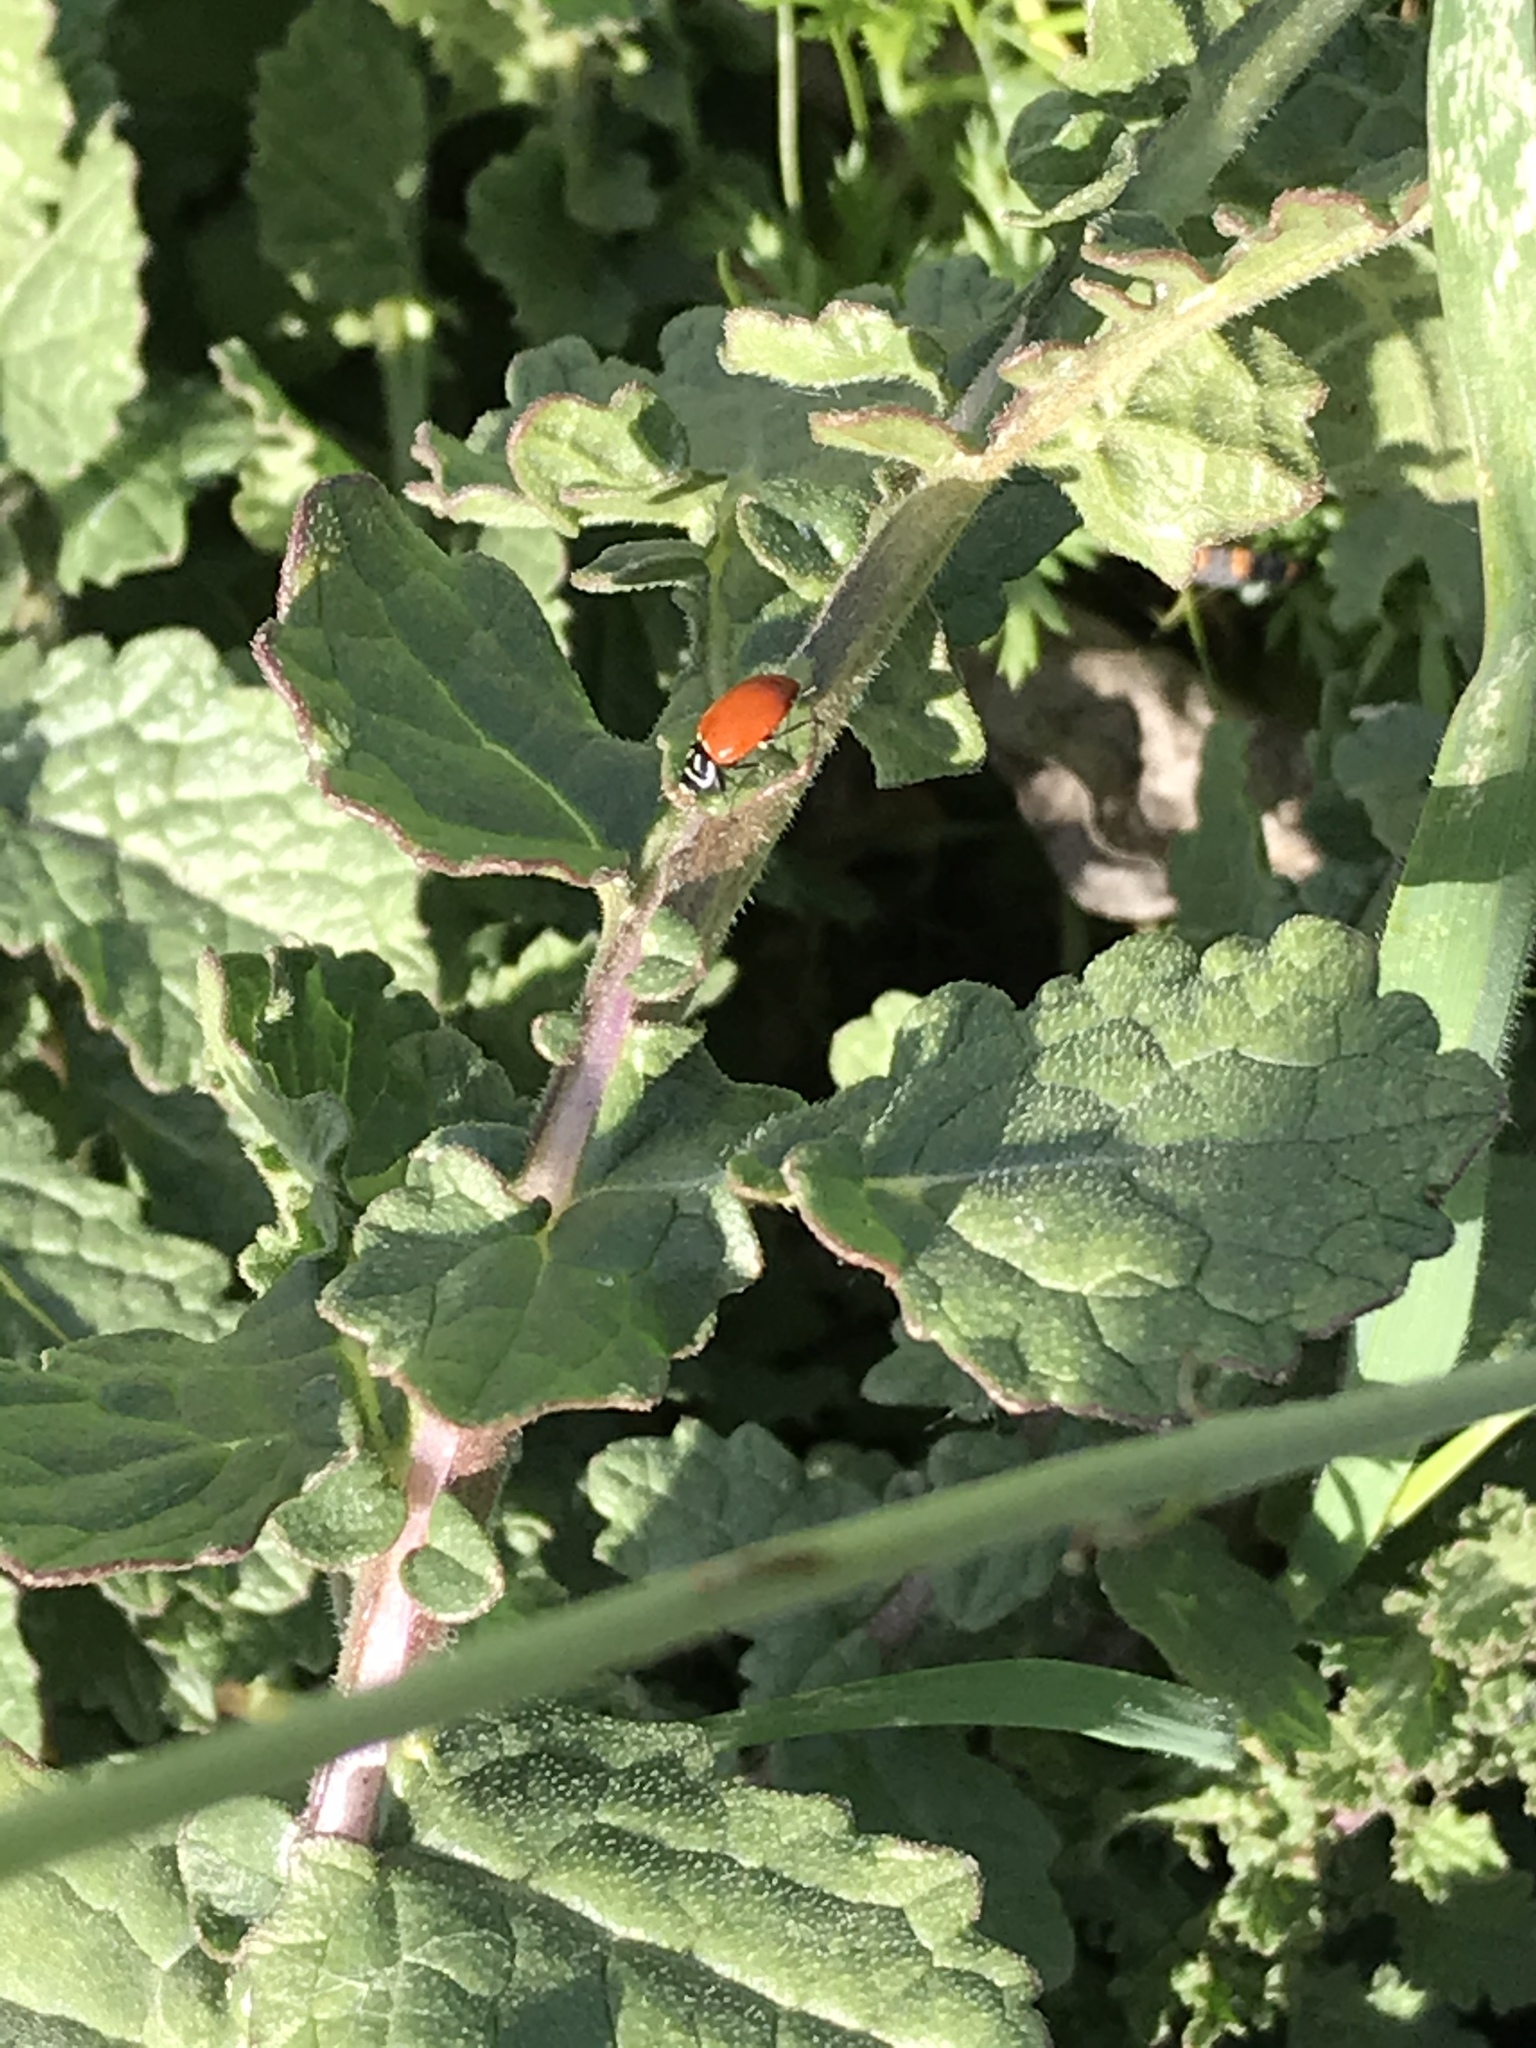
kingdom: Animalia
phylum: Arthropoda
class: Insecta
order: Coleoptera
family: Coccinellidae
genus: Hippodamia
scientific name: Hippodamia convergens
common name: Convergent lady beetle
